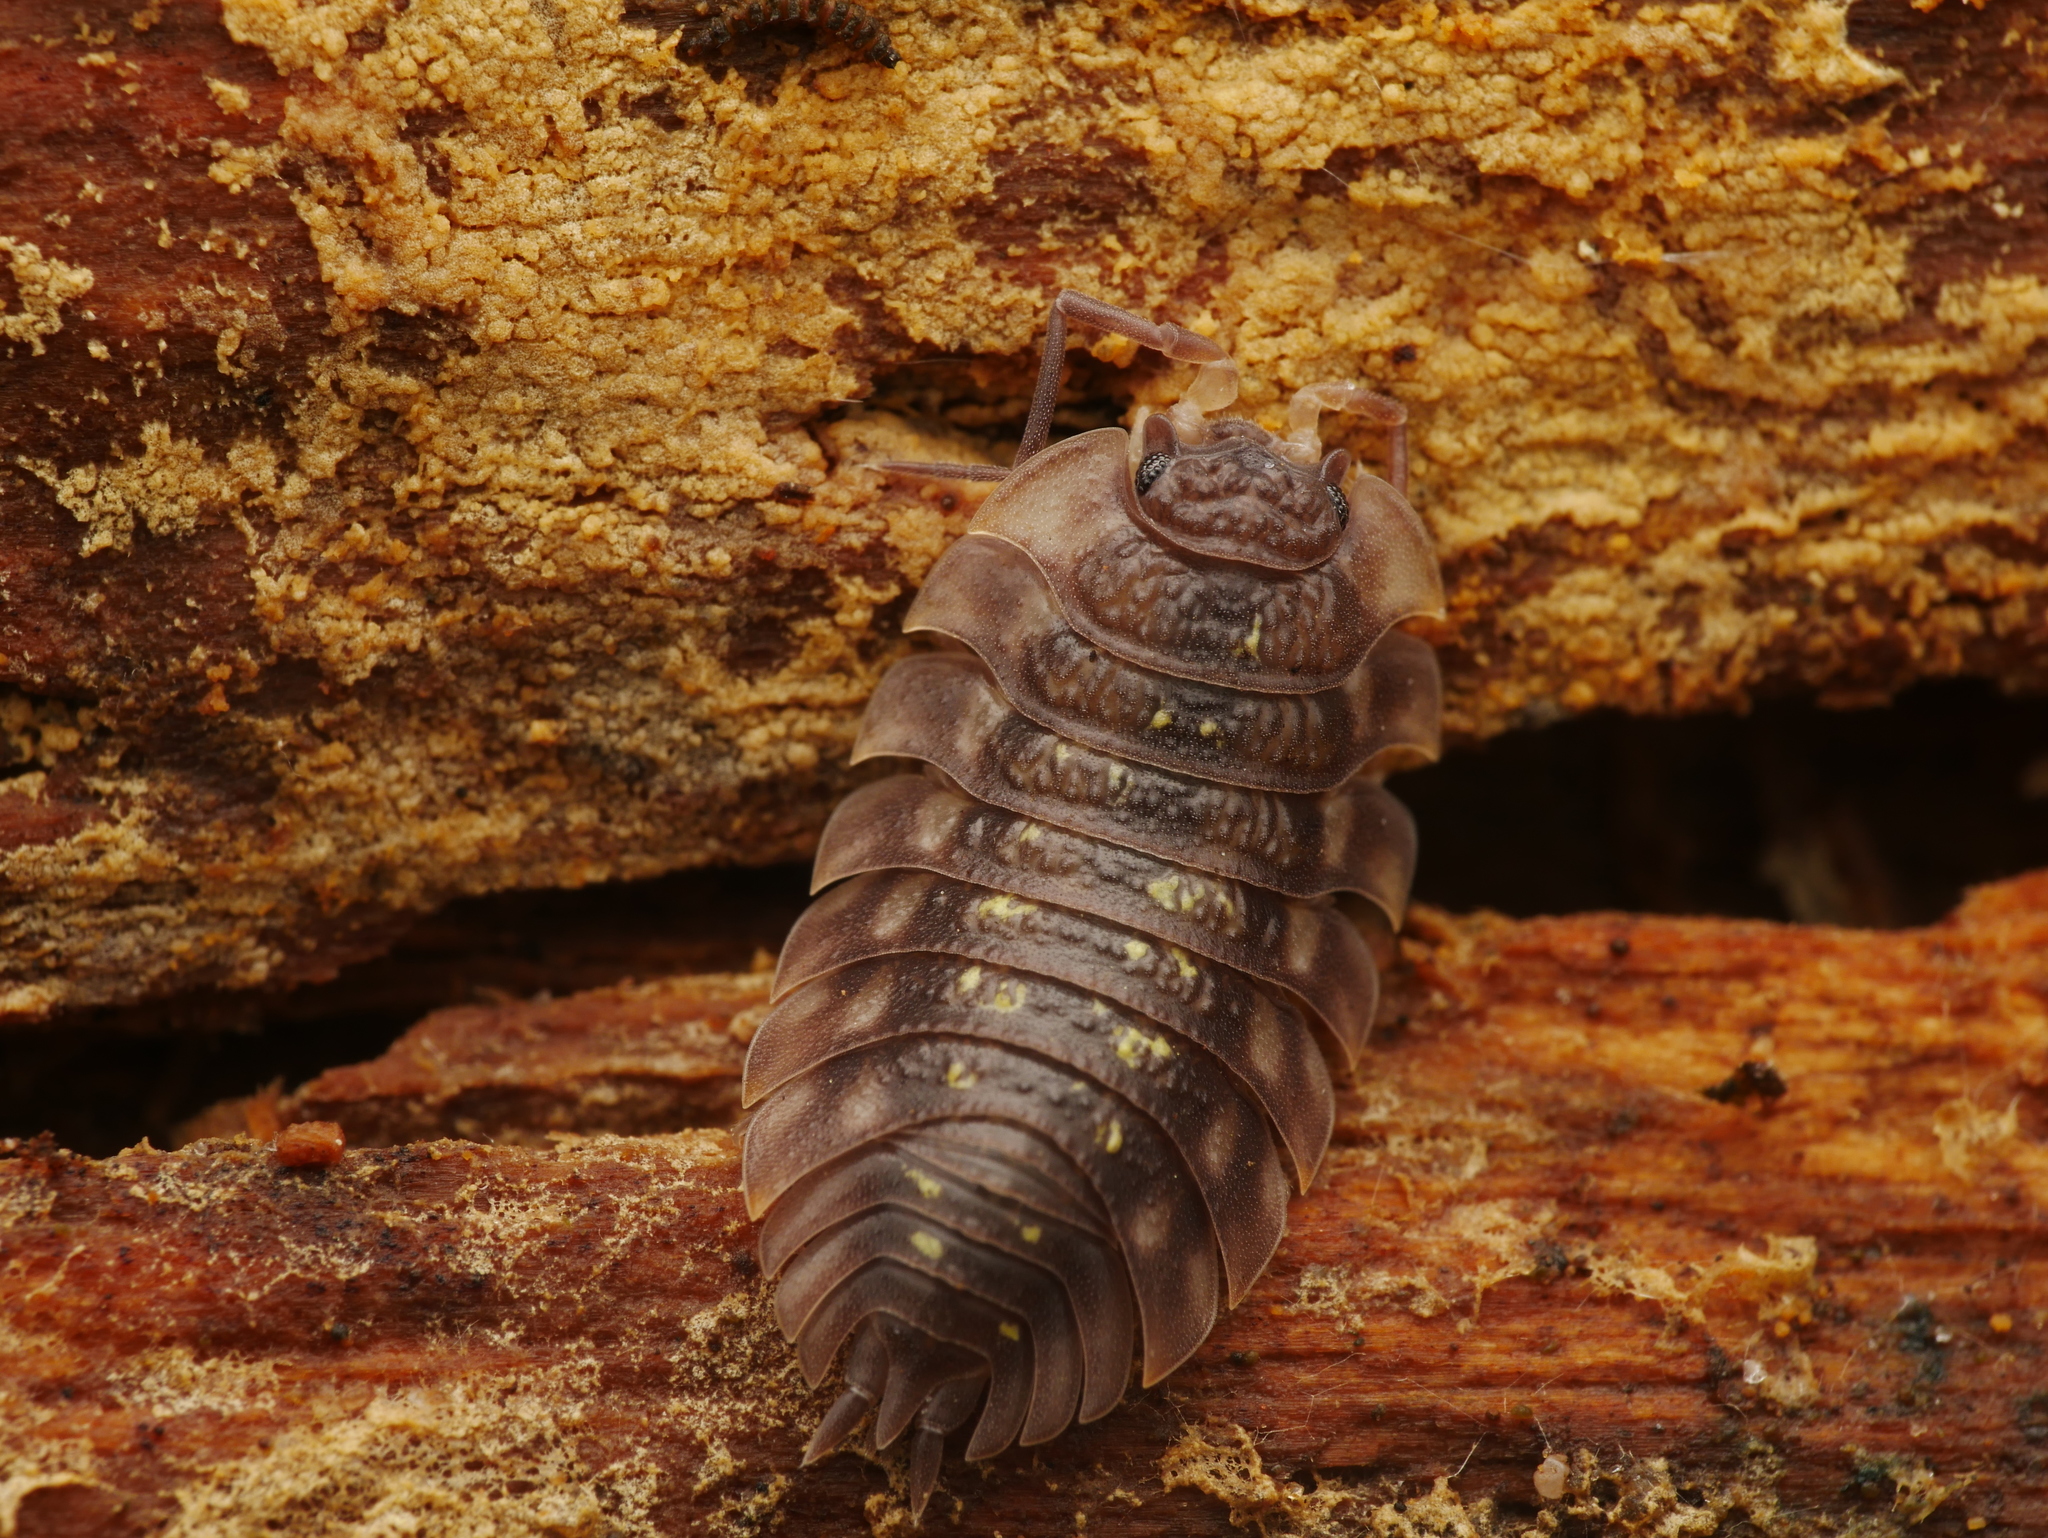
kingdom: Animalia
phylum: Arthropoda
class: Malacostraca
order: Isopoda
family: Oniscidae
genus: Oniscus
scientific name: Oniscus asellus
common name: Common shiny woodlouse
